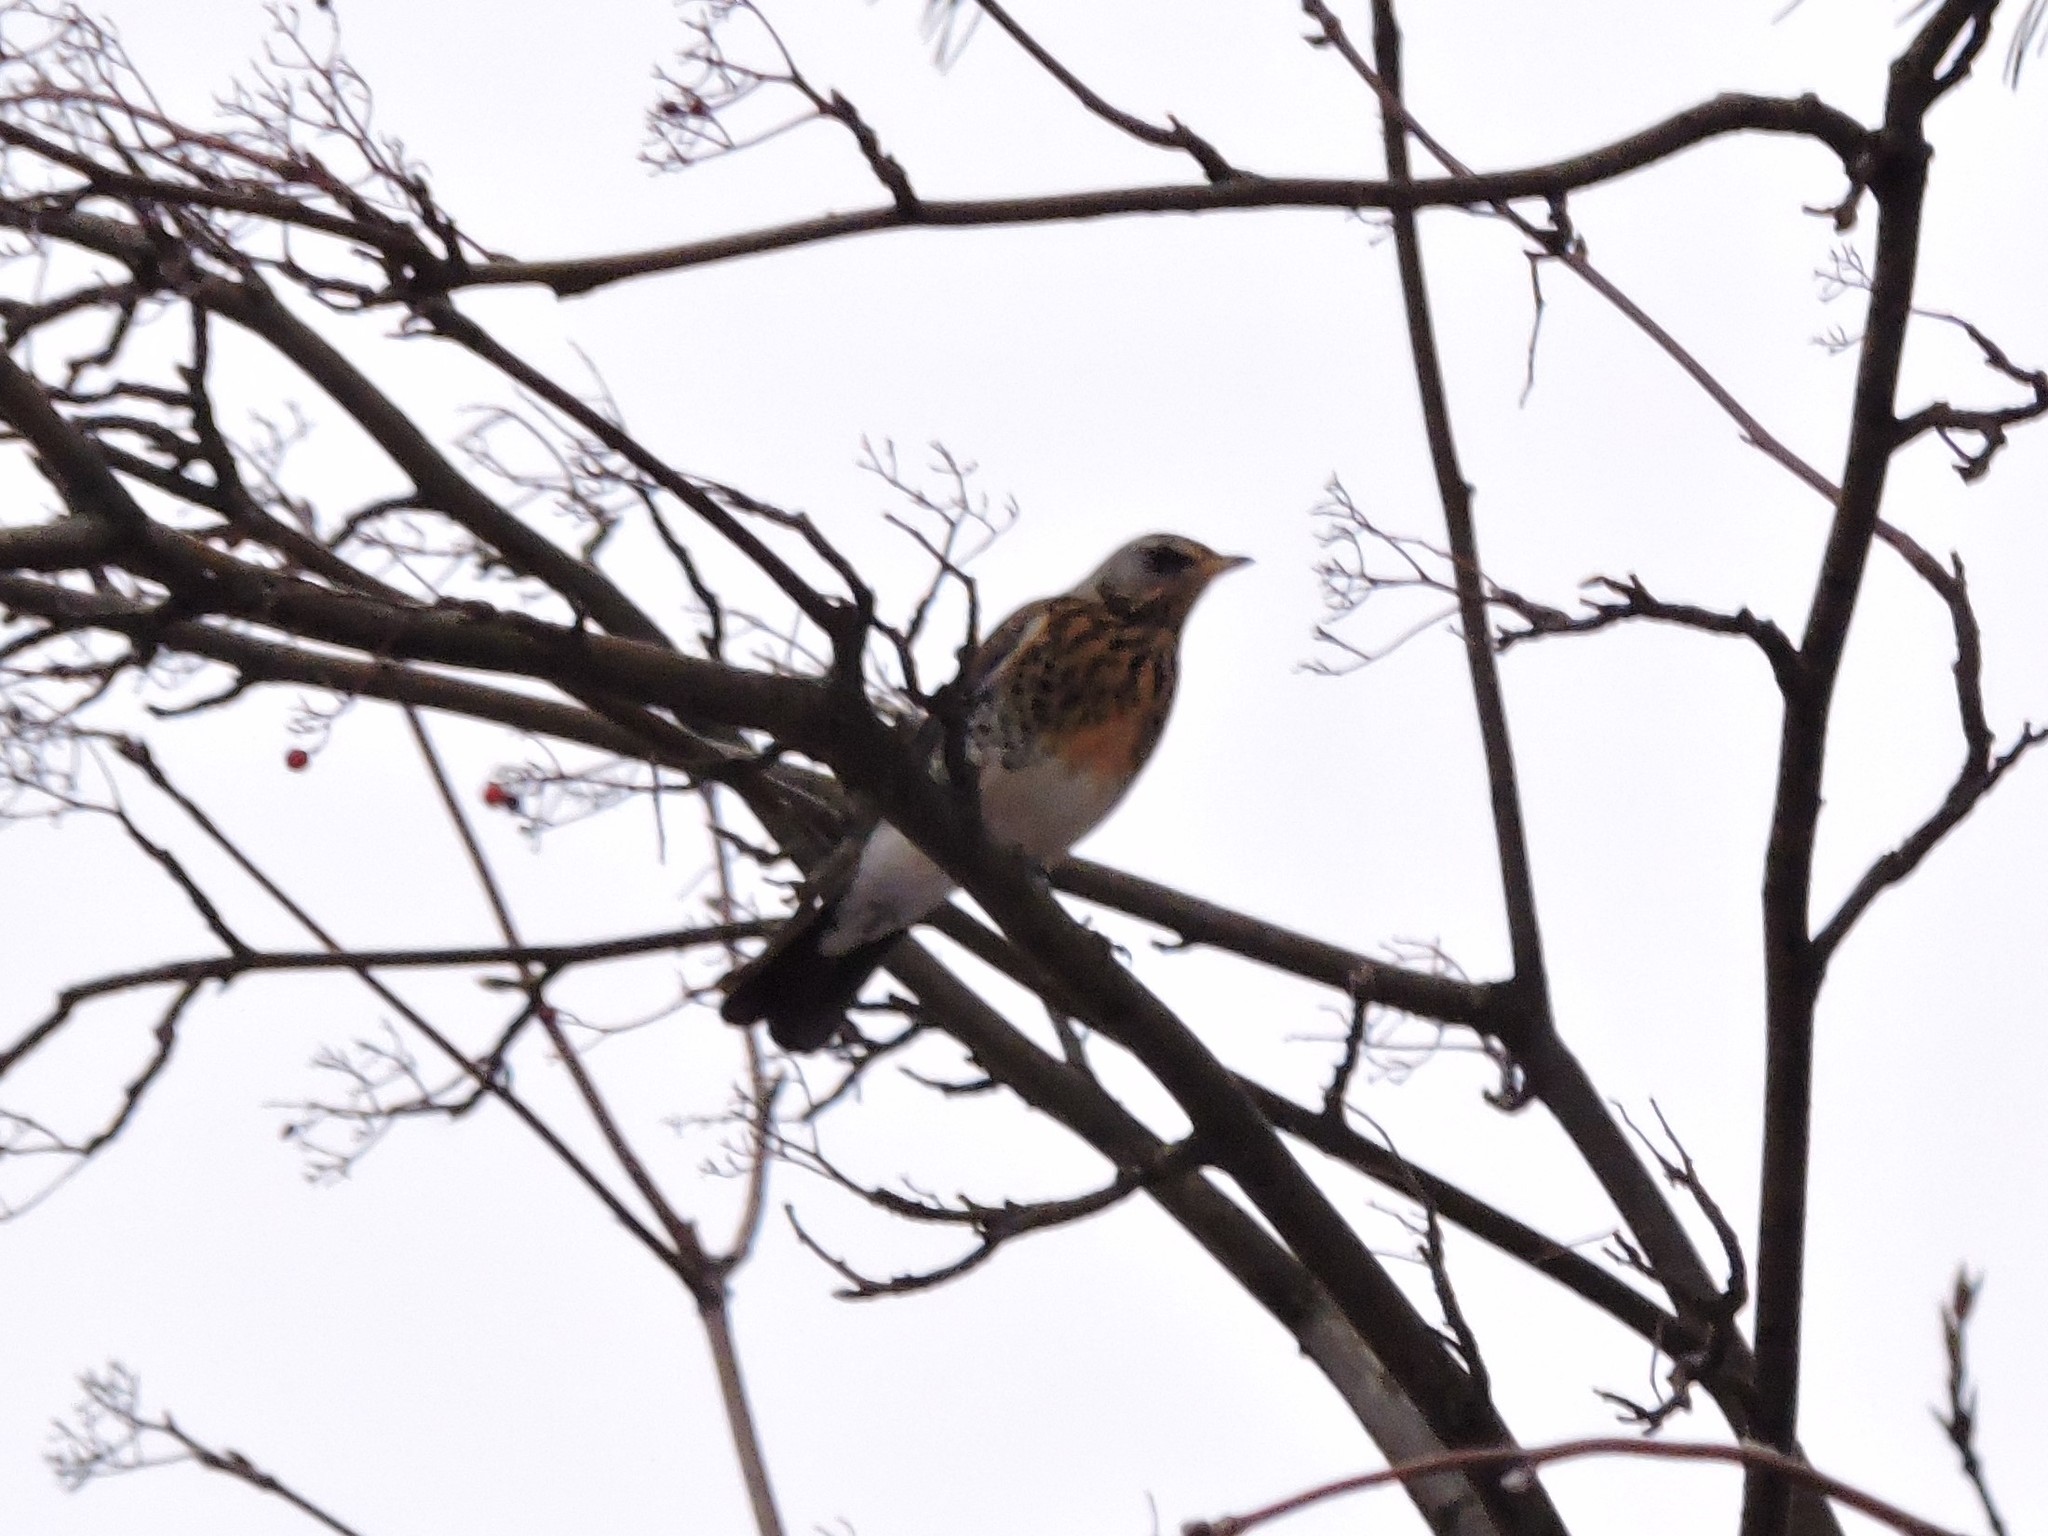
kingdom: Animalia
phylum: Chordata
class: Aves
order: Passeriformes
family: Turdidae
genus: Turdus
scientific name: Turdus pilaris
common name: Fieldfare
